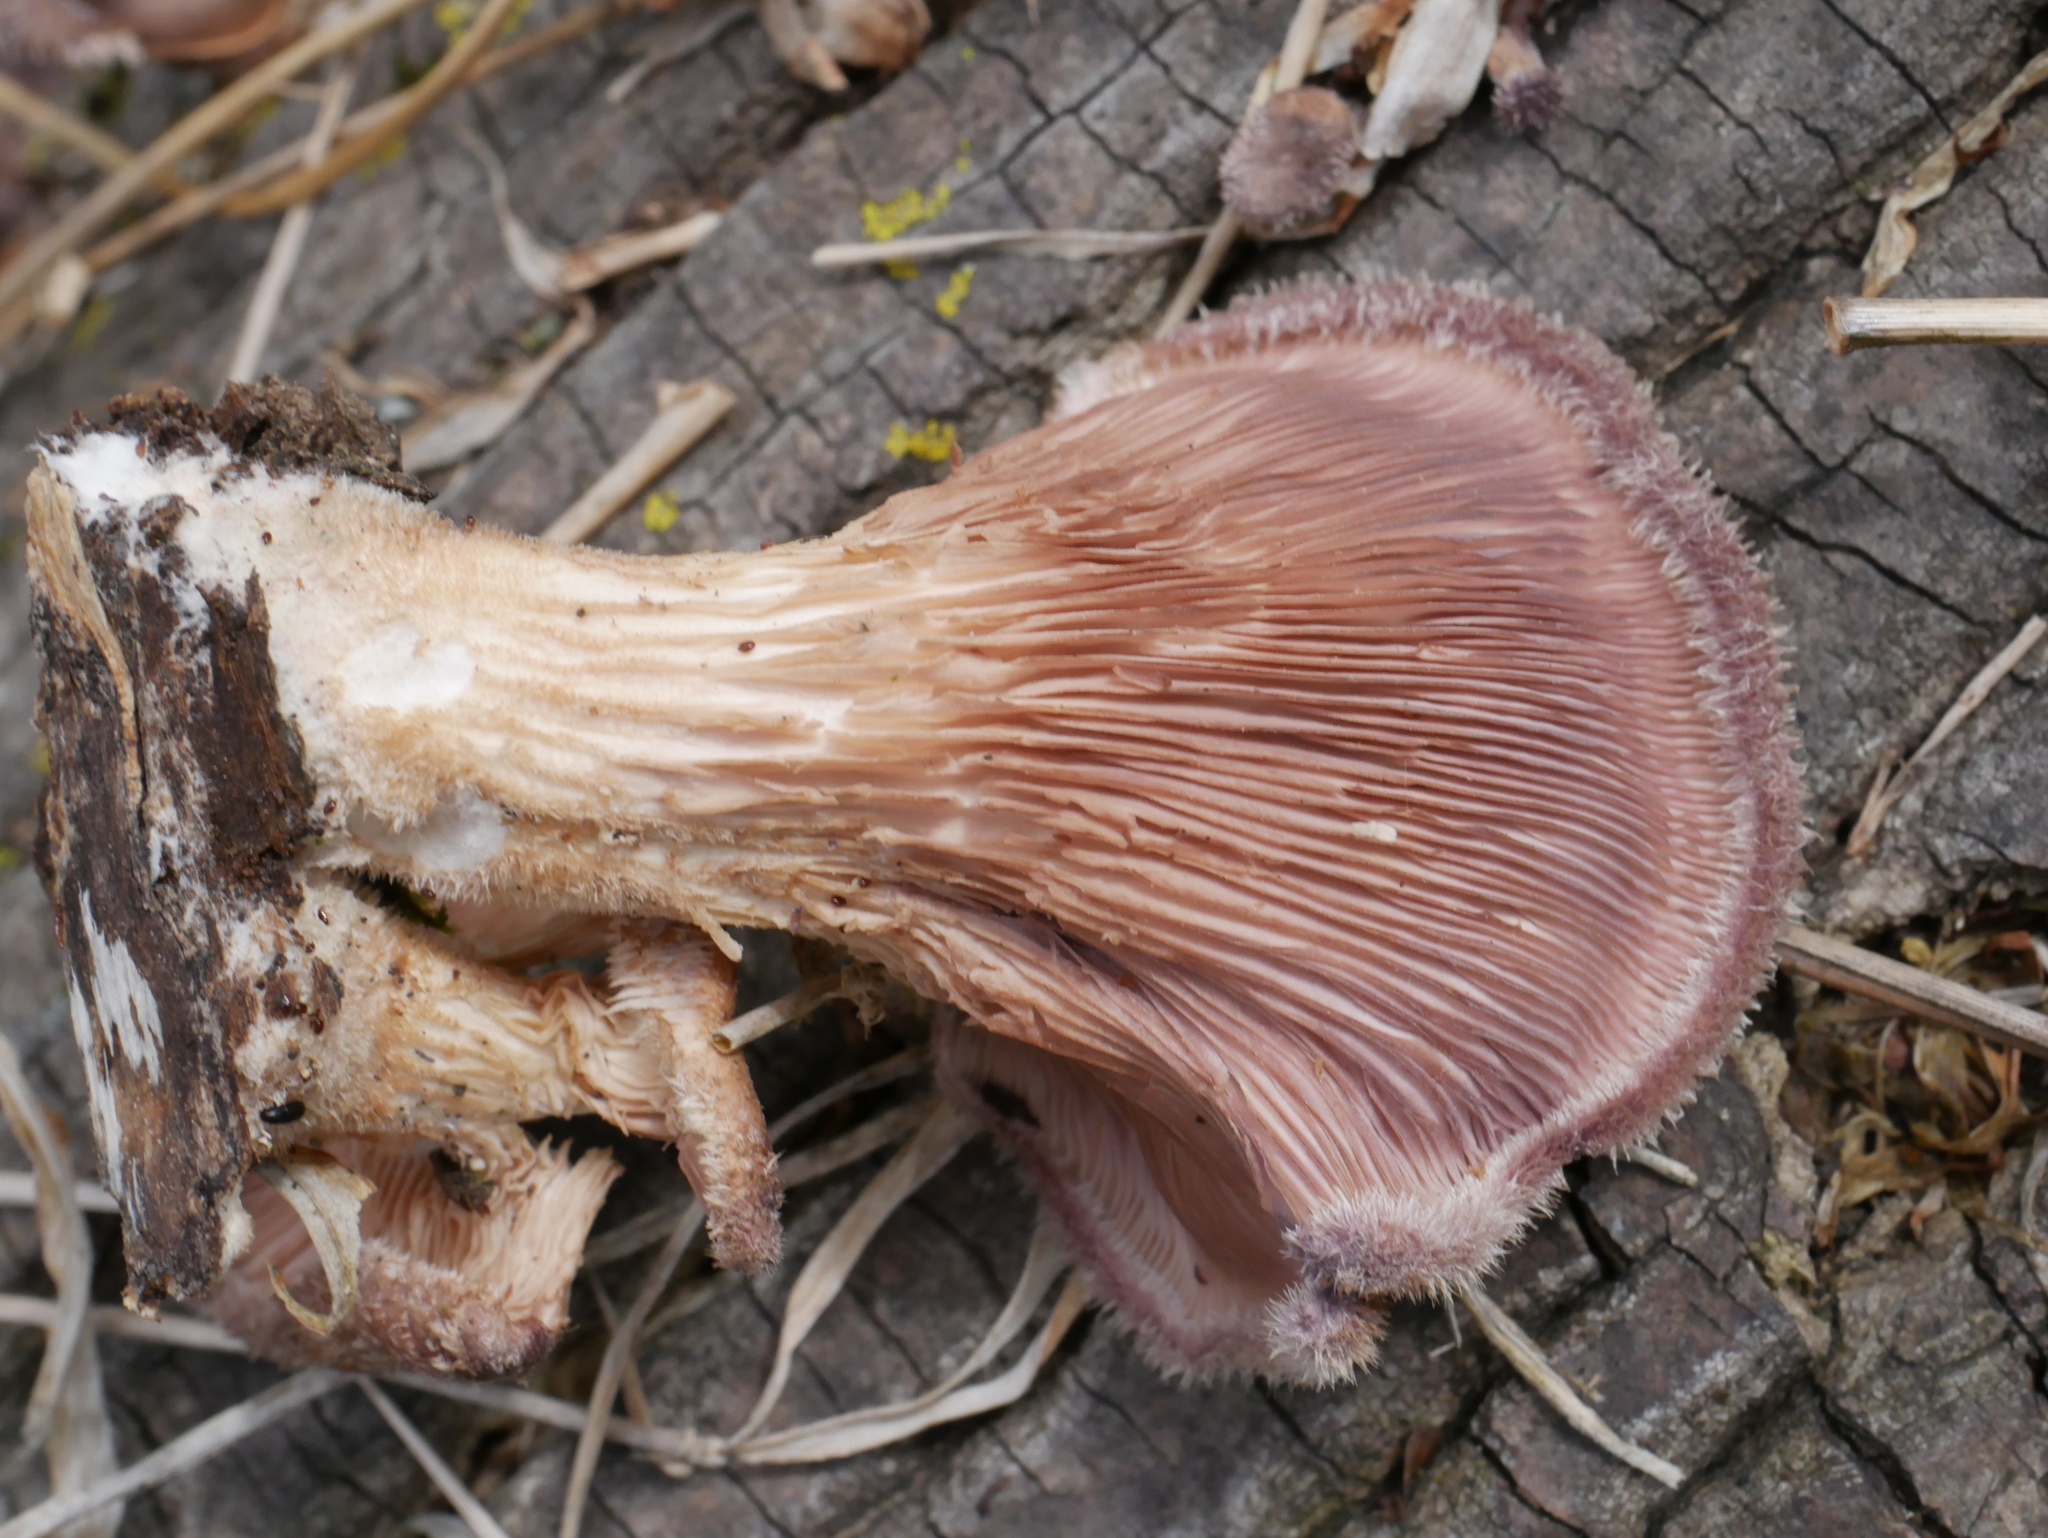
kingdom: Fungi
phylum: Basidiomycota
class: Agaricomycetes
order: Polyporales
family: Panaceae
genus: Panus
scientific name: Panus neostrigosus
